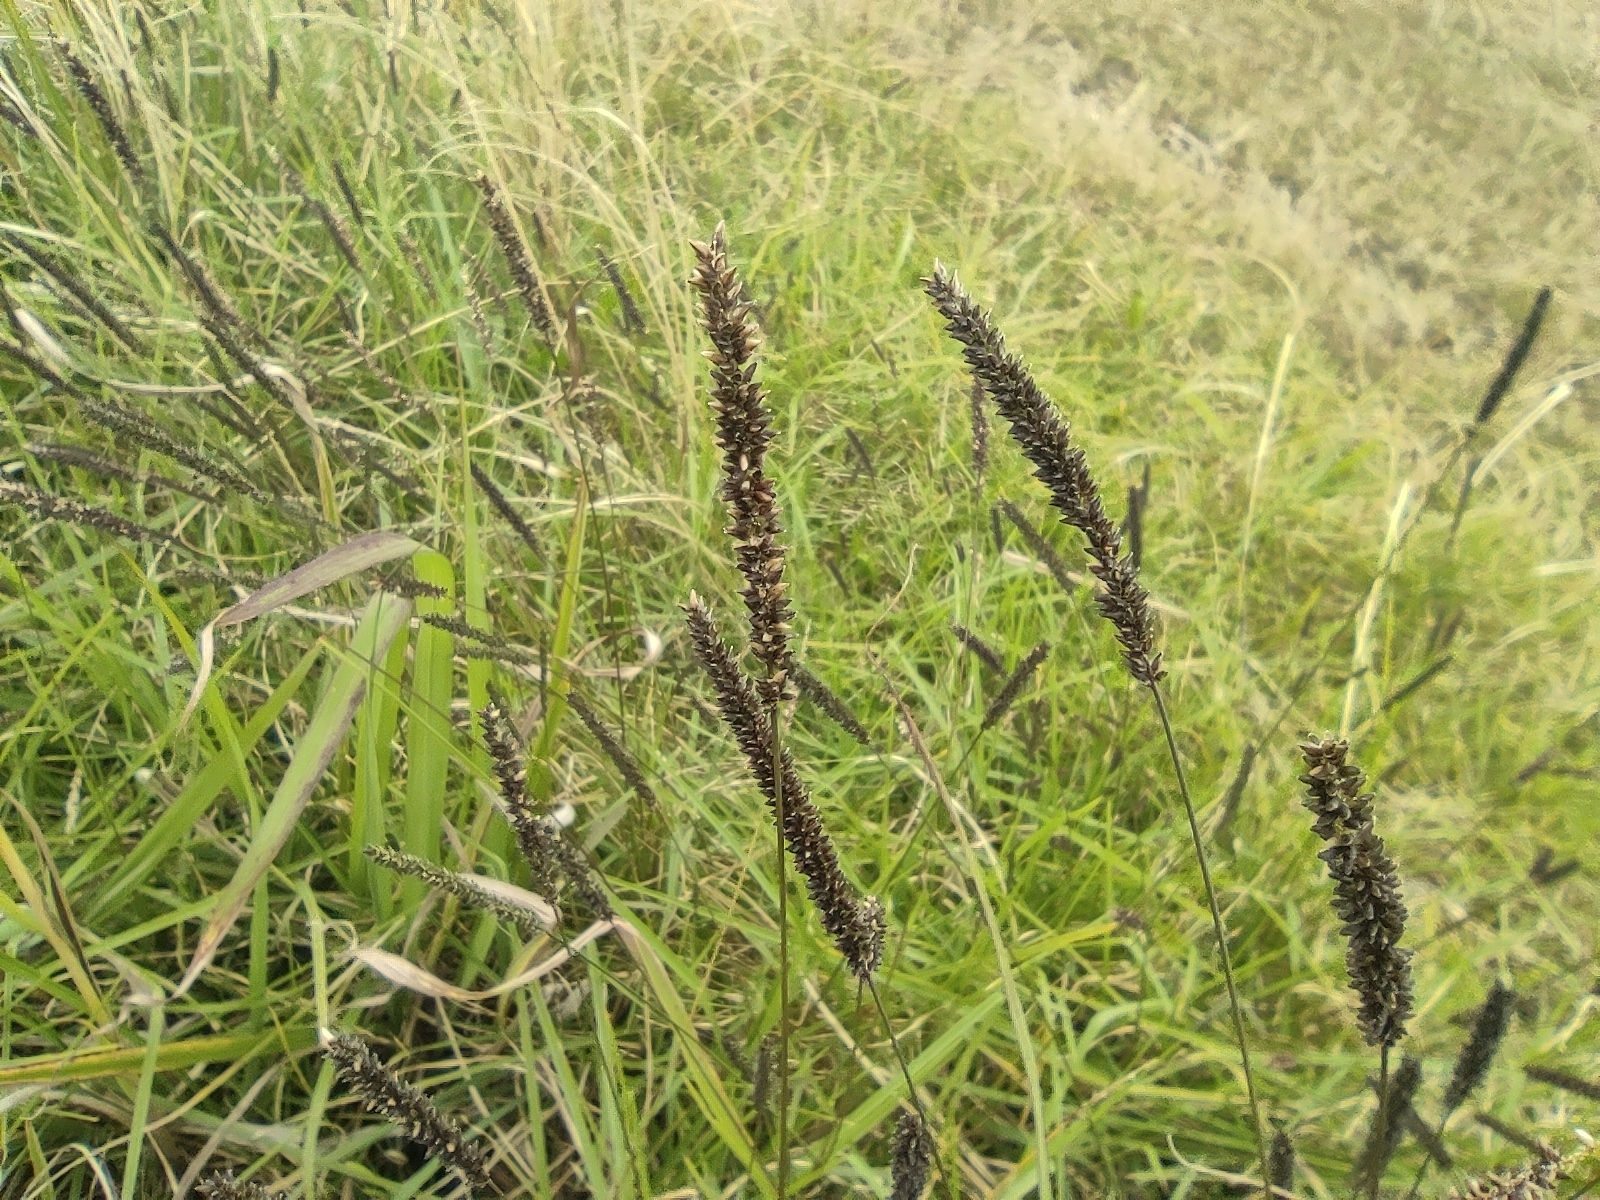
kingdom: Plantae
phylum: Tracheophyta
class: Liliopsida
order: Poales
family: Poaceae
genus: Sacciolepis
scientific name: Sacciolepis indica
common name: Glenwoodgrass
